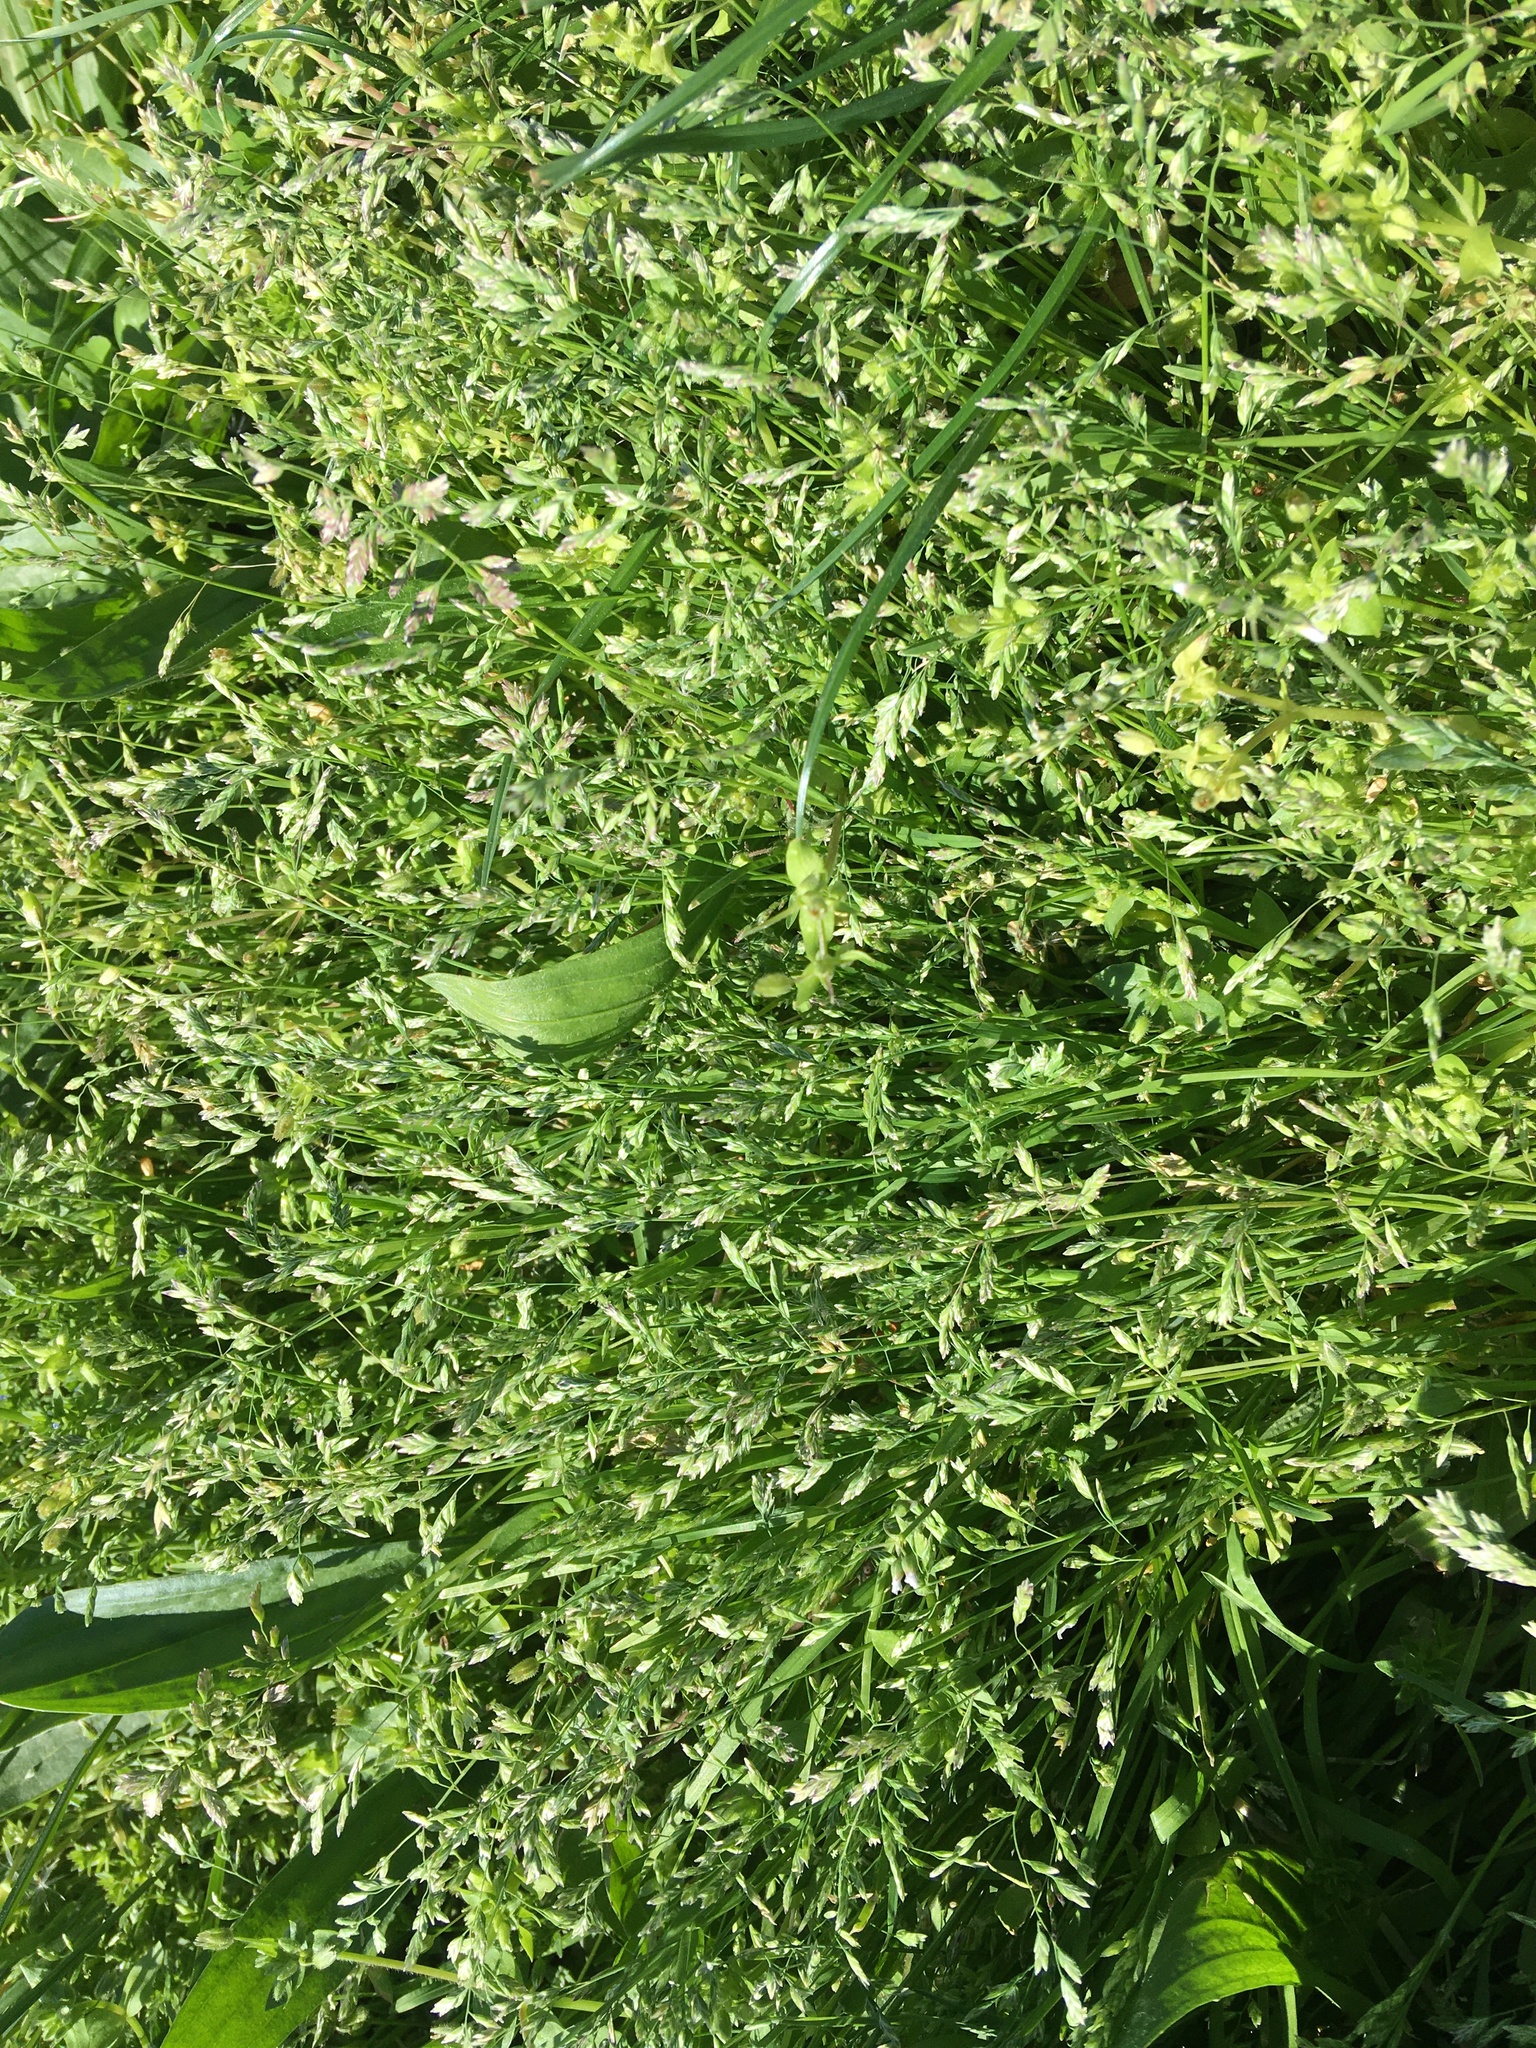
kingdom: Plantae
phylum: Tracheophyta
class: Liliopsida
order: Poales
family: Poaceae
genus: Poa
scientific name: Poa annua
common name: Annual bluegrass
